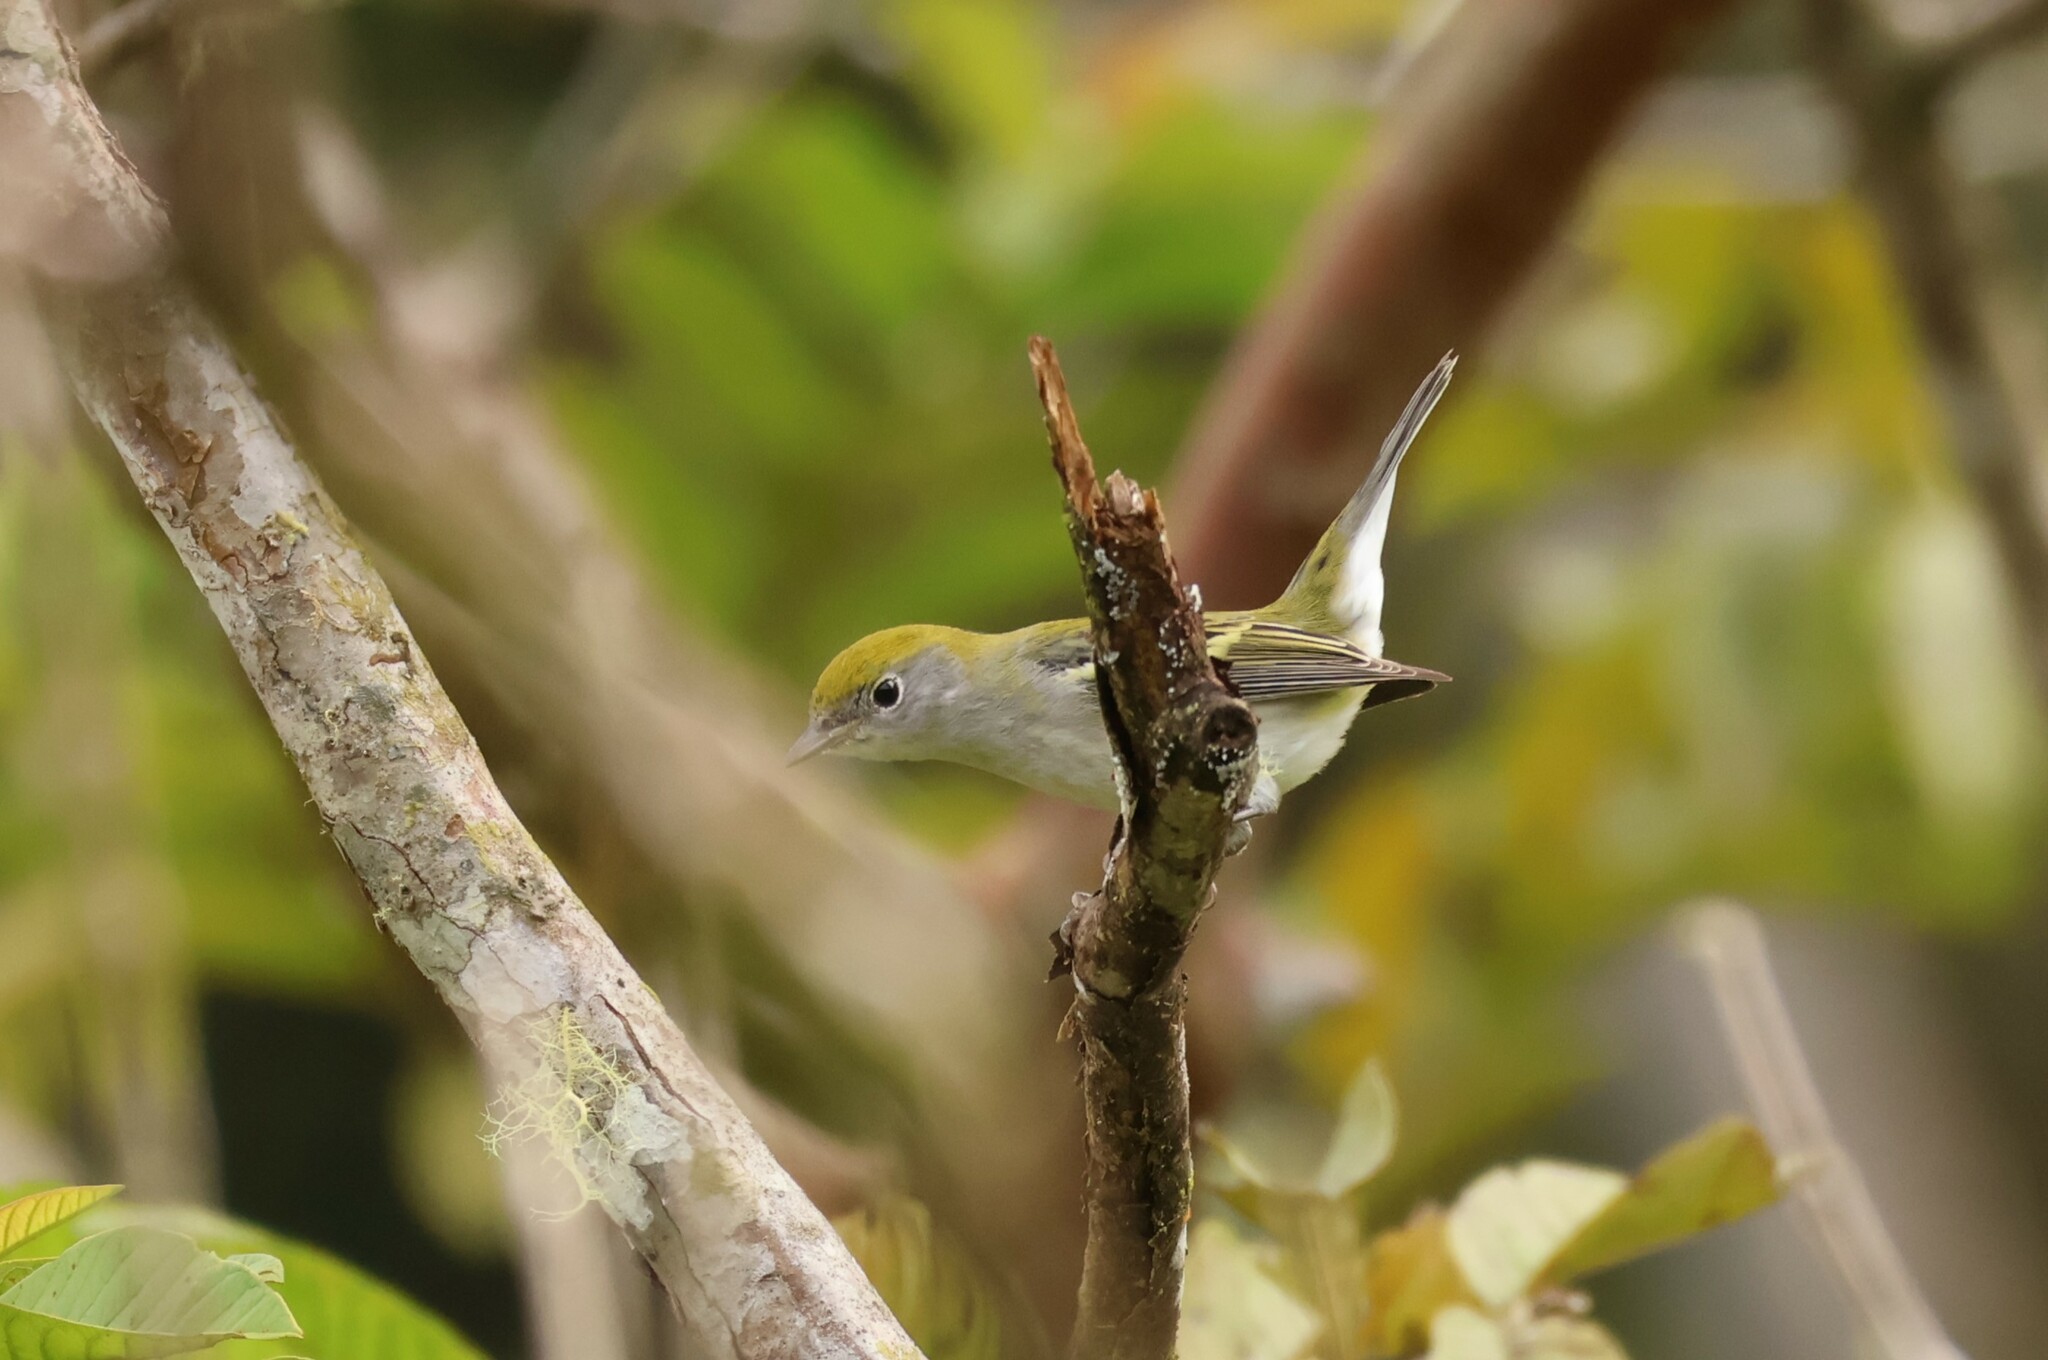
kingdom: Animalia
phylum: Chordata
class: Aves
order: Passeriformes
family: Parulidae
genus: Setophaga
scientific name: Setophaga pensylvanica
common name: Chestnut-sided warbler
